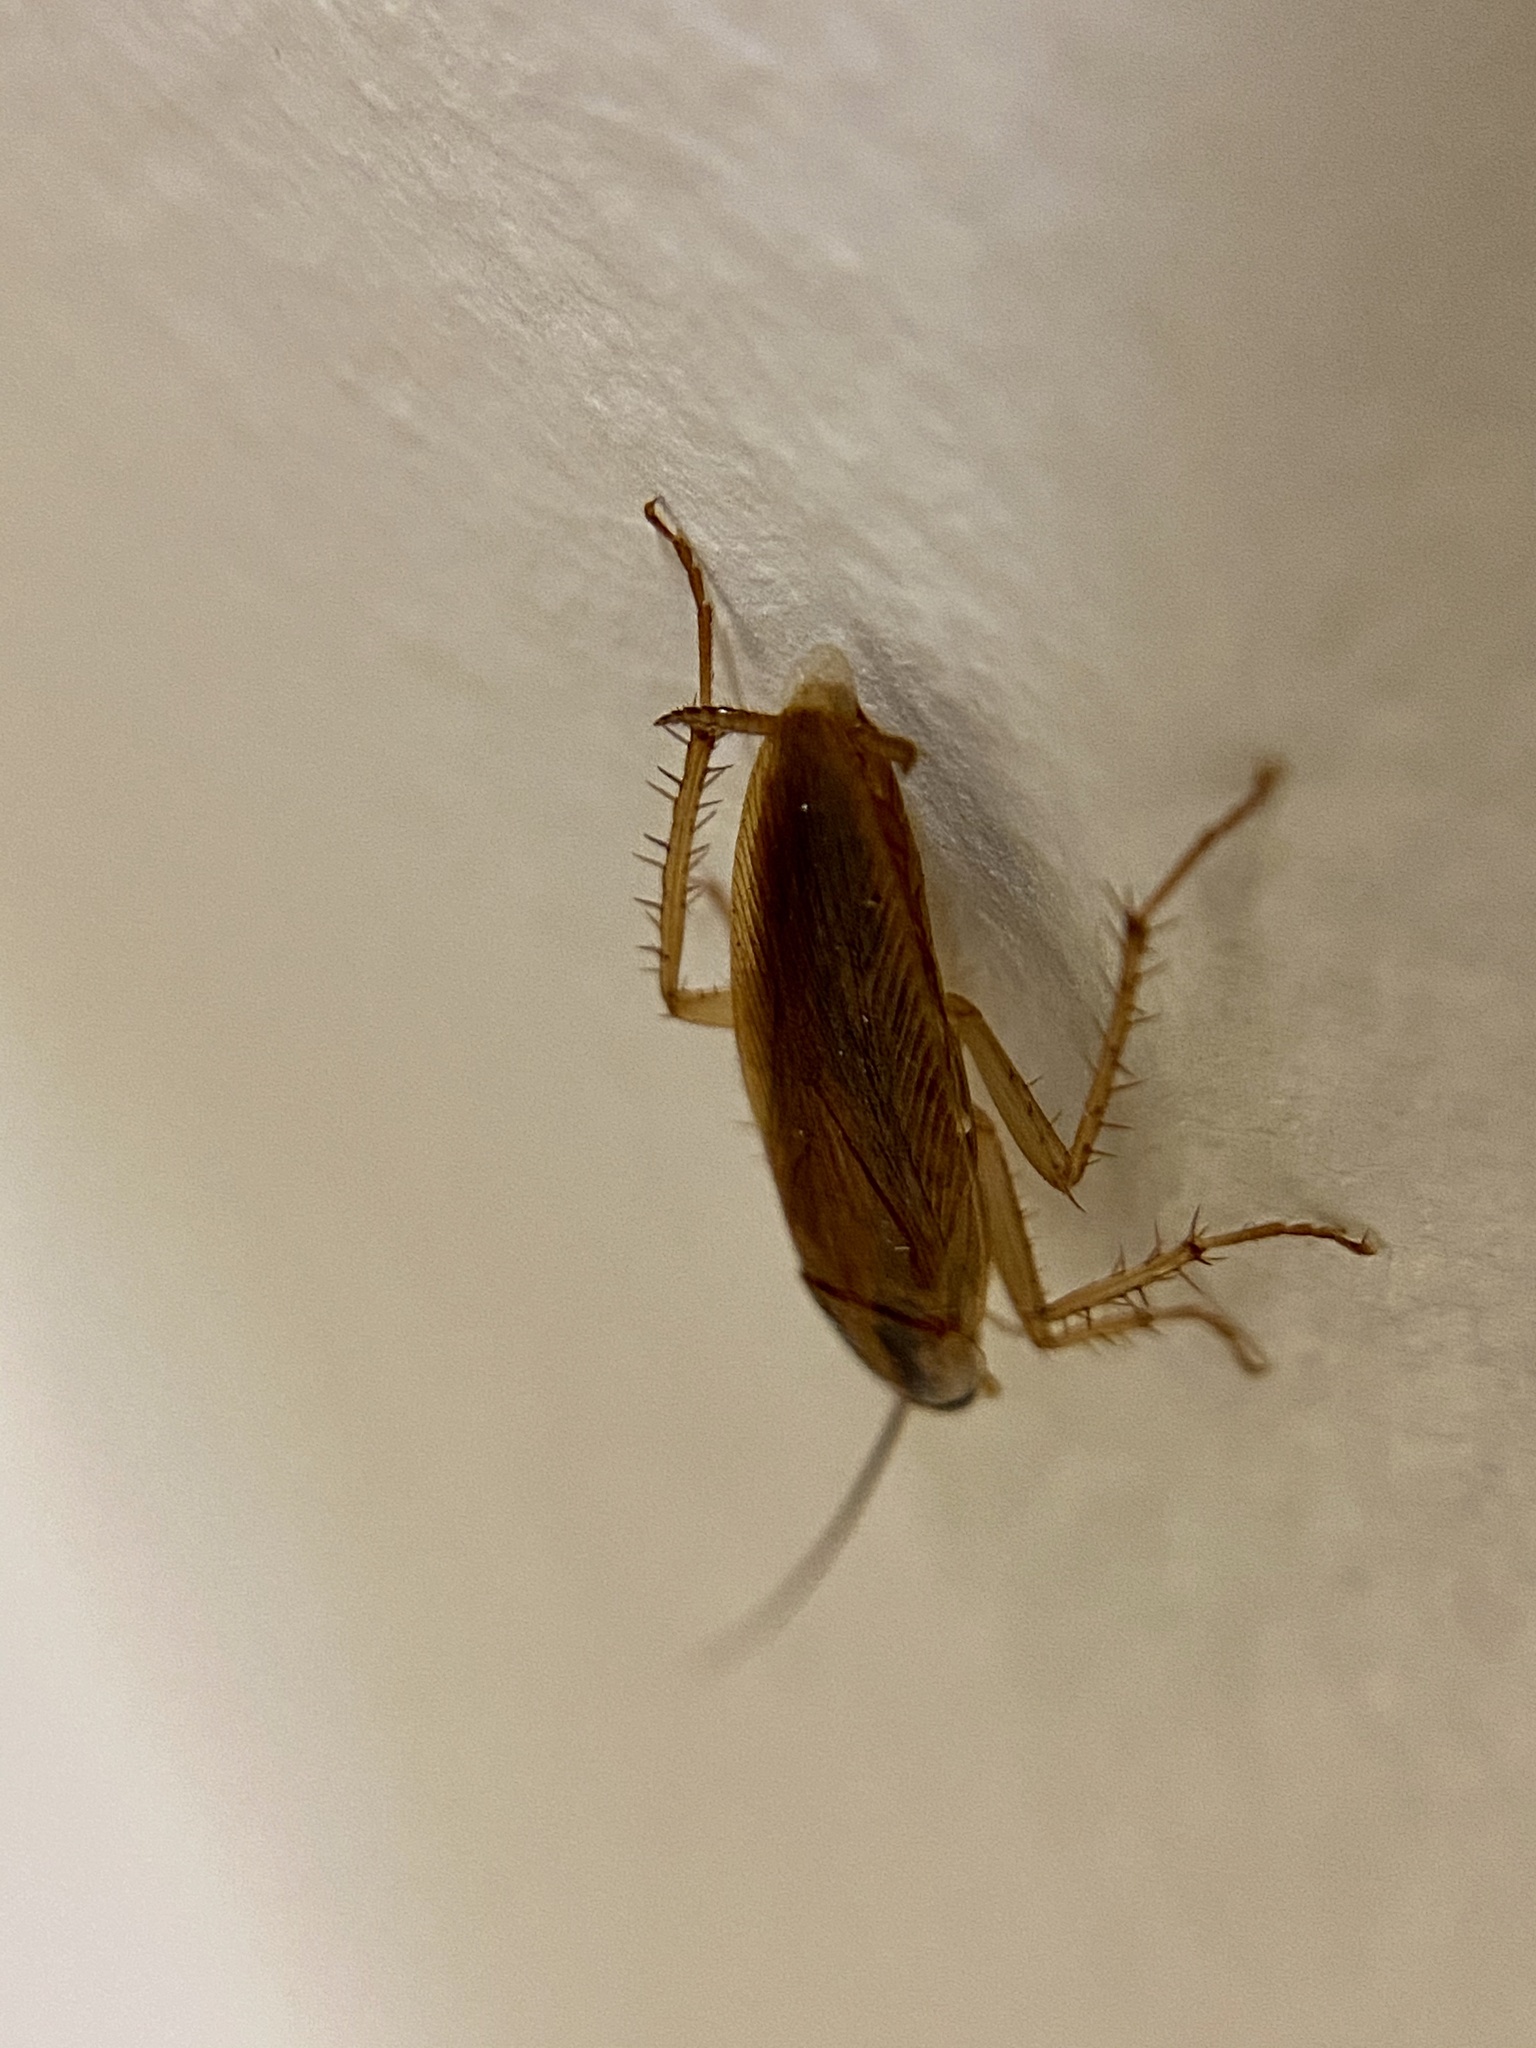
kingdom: Animalia
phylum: Arthropoda
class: Insecta
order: Blattodea
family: Ectobiidae
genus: Blattella
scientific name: Blattella germanica
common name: German cockroach
